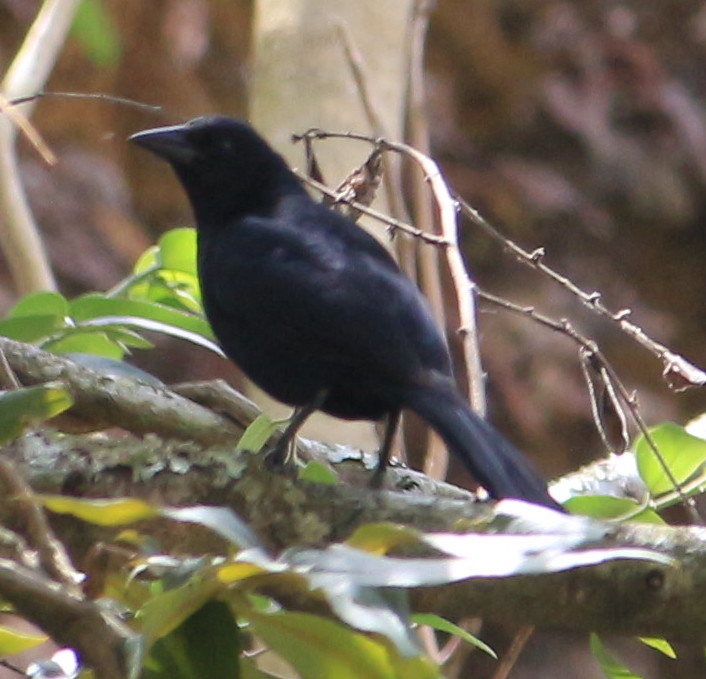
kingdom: Animalia
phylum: Chordata
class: Aves
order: Passeriformes
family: Icteridae
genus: Dives
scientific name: Dives dives
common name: Melodious blackbird
